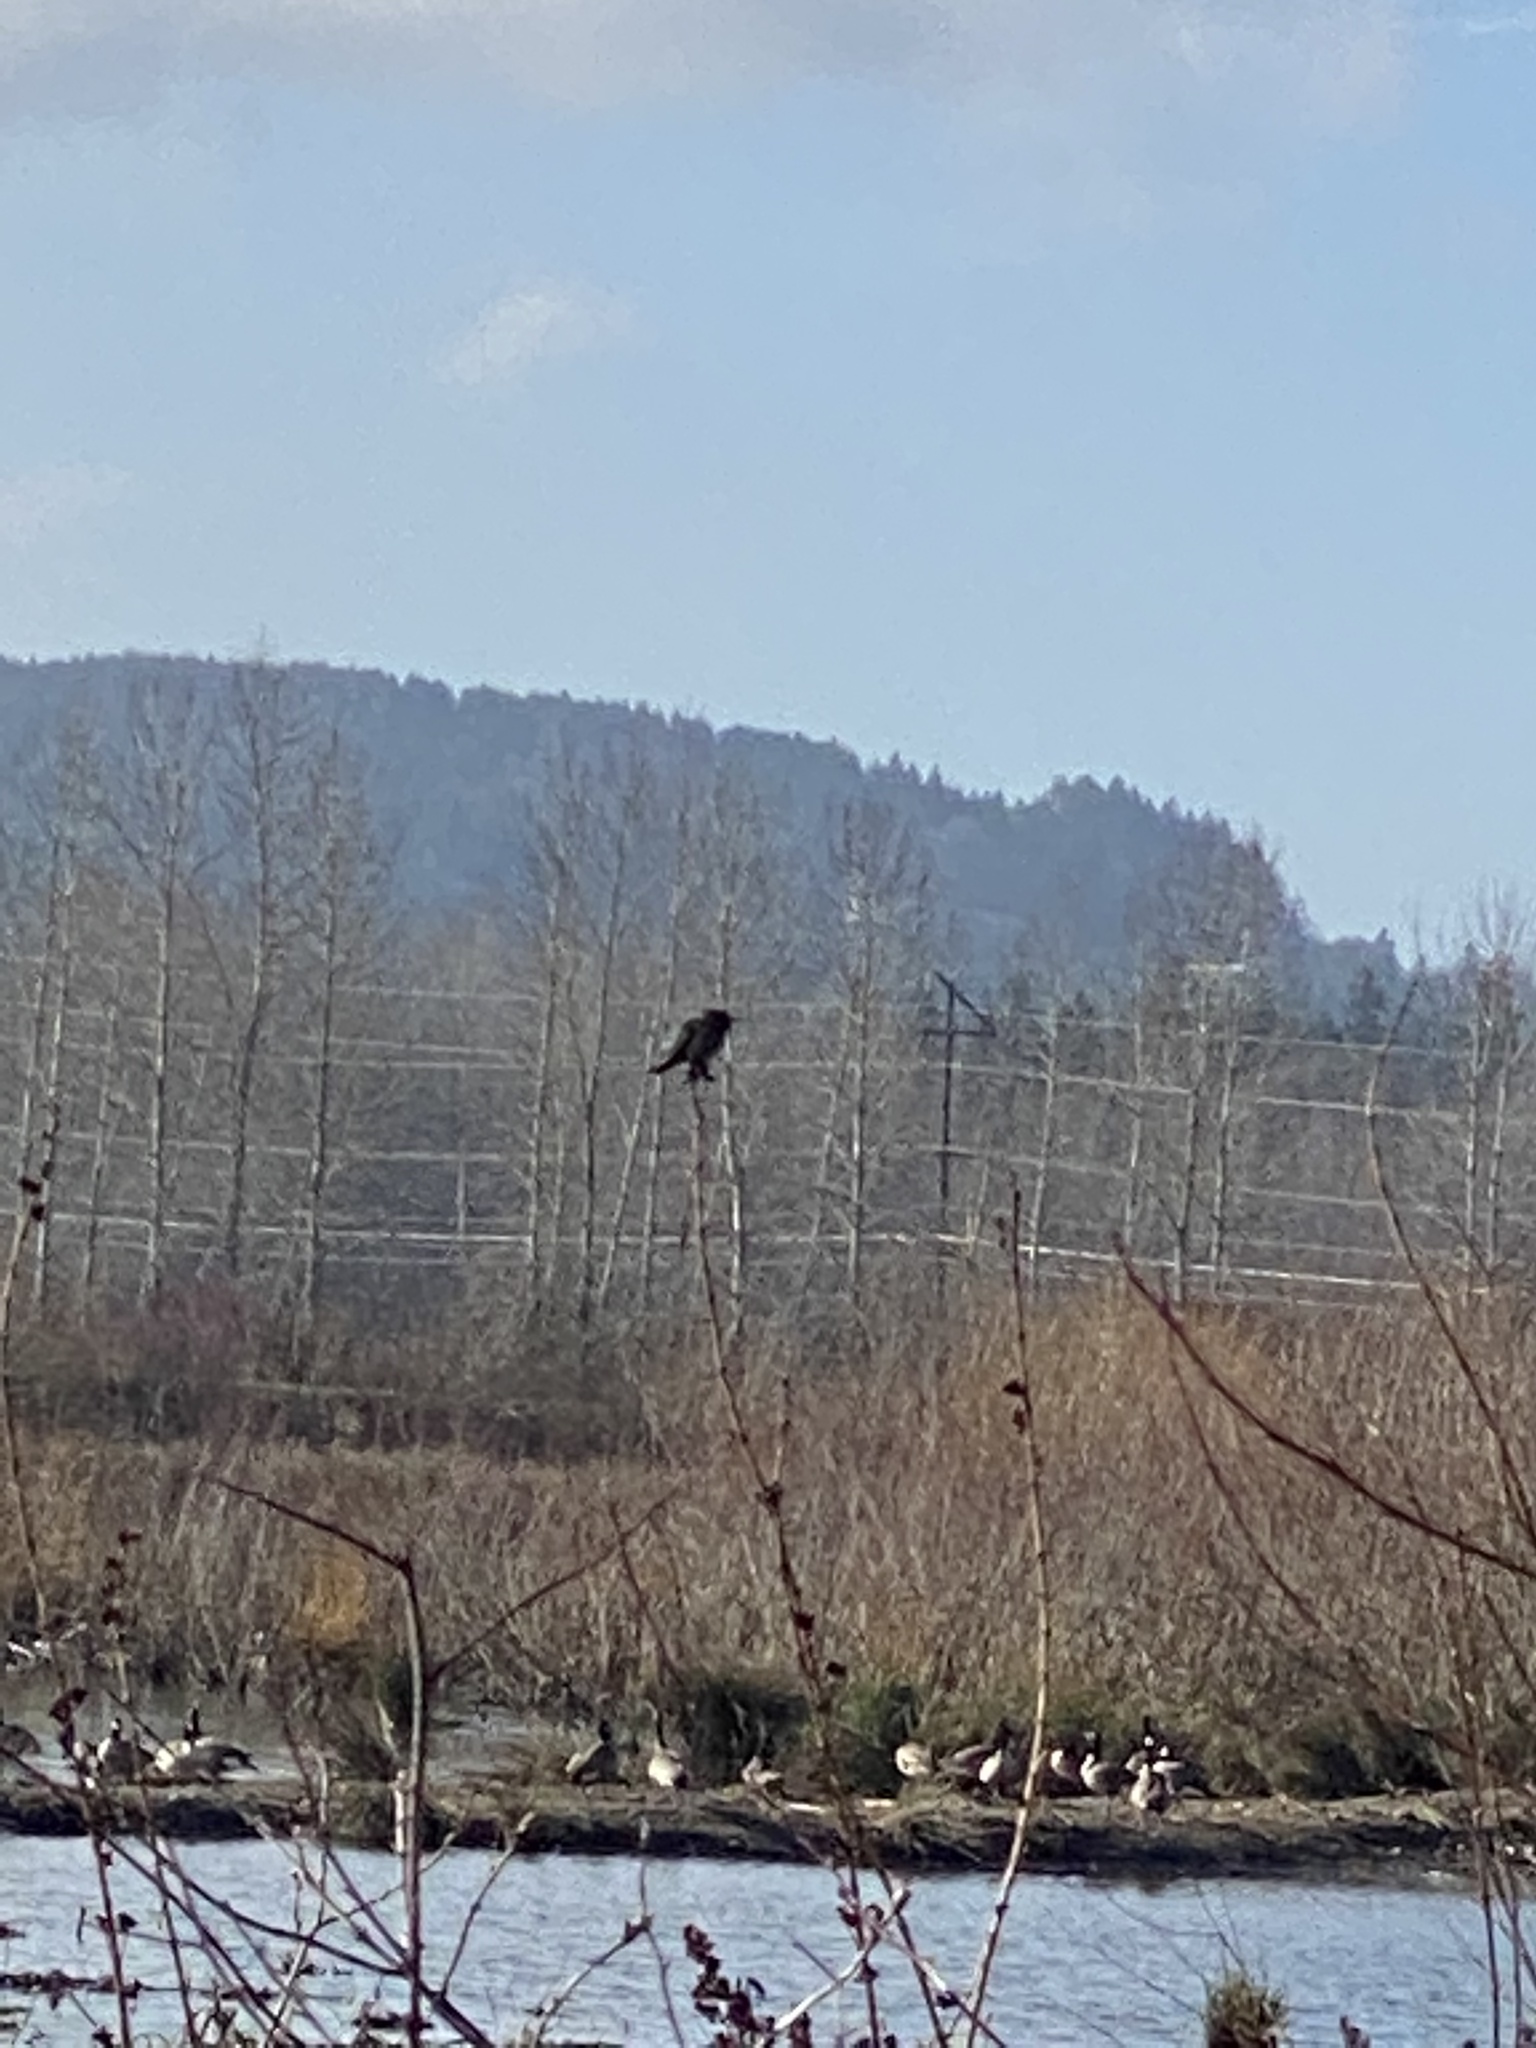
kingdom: Animalia
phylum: Chordata
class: Aves
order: Apodiformes
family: Trochilidae
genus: Calypte
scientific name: Calypte anna
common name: Anna's hummingbird
